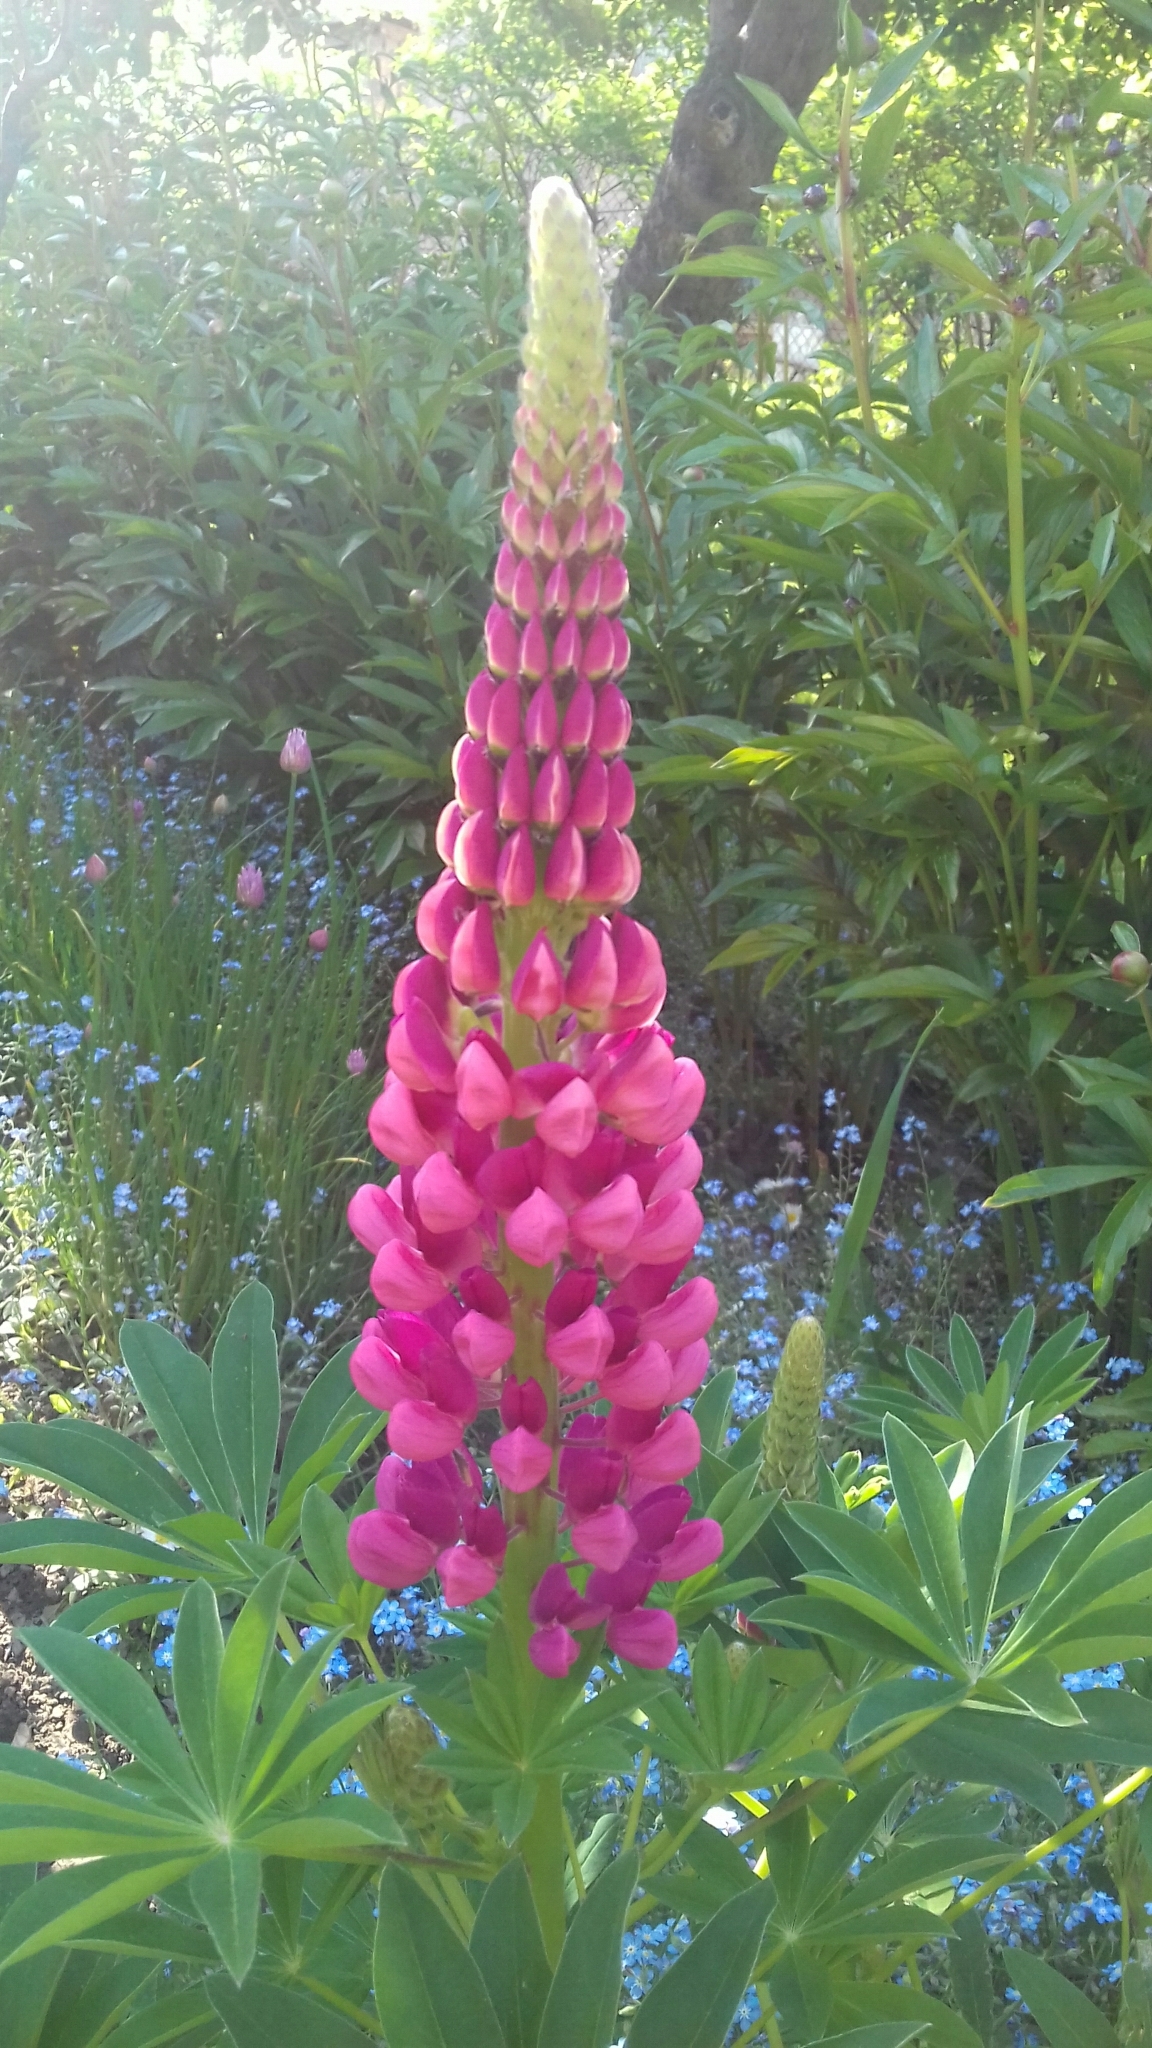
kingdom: Plantae
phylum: Tracheophyta
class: Magnoliopsida
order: Fabales
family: Fabaceae
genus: Lupinus
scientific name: Lupinus polyphyllus
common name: Garden lupin
